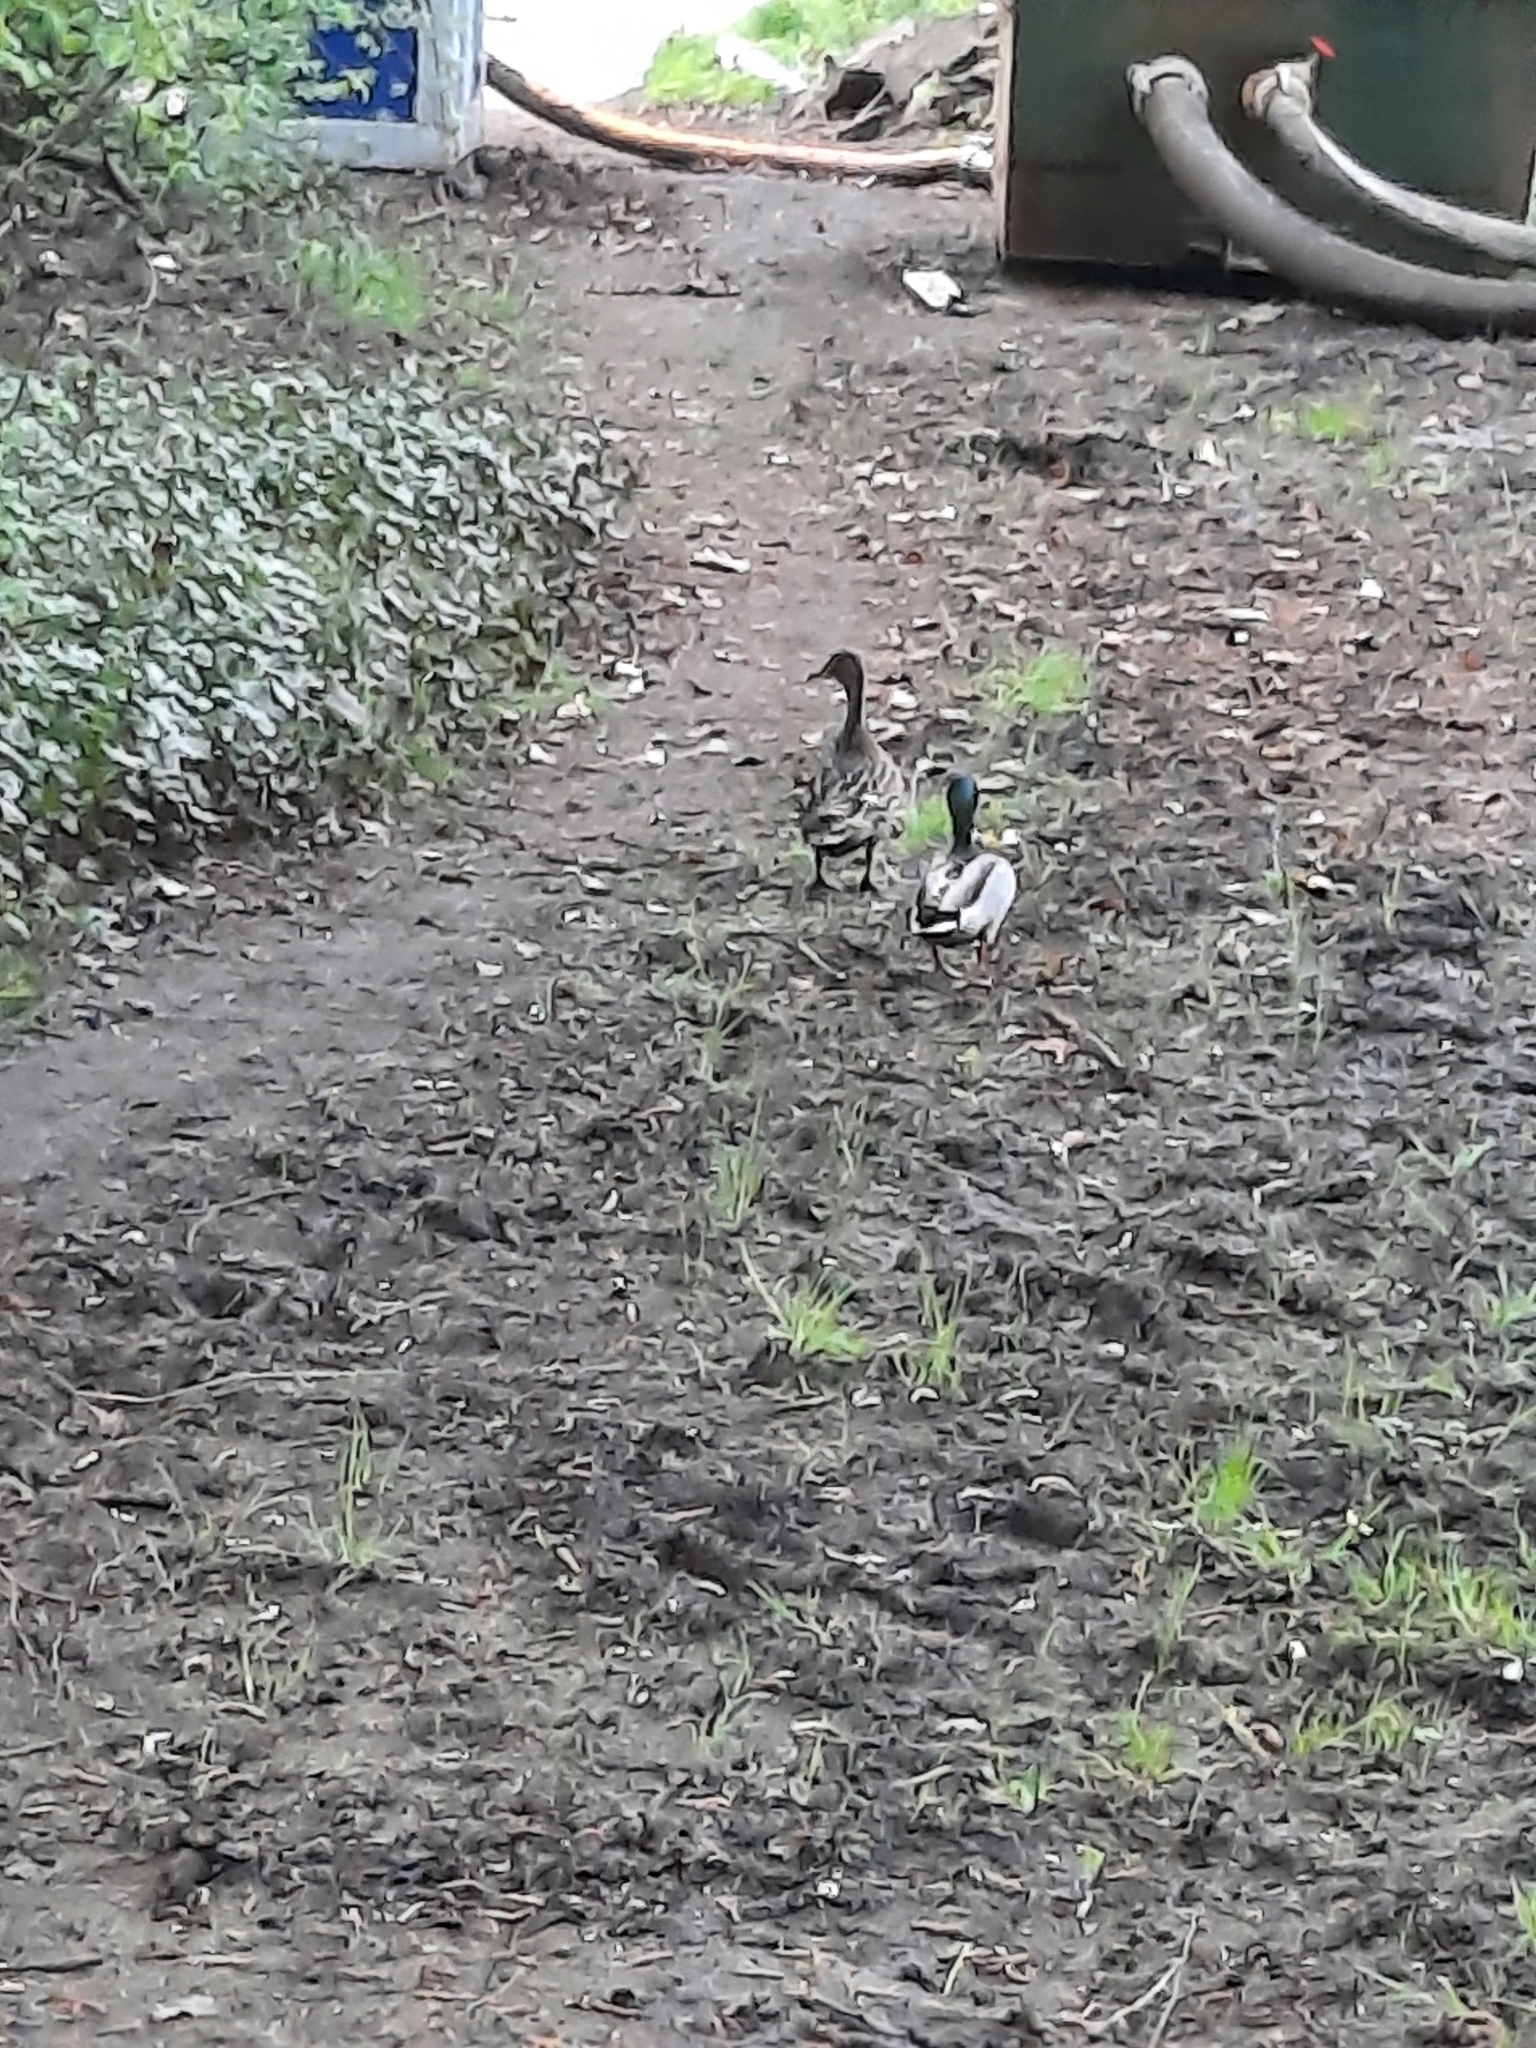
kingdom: Animalia
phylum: Chordata
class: Aves
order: Anseriformes
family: Anatidae
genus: Anas
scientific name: Anas platyrhynchos
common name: Mallard
